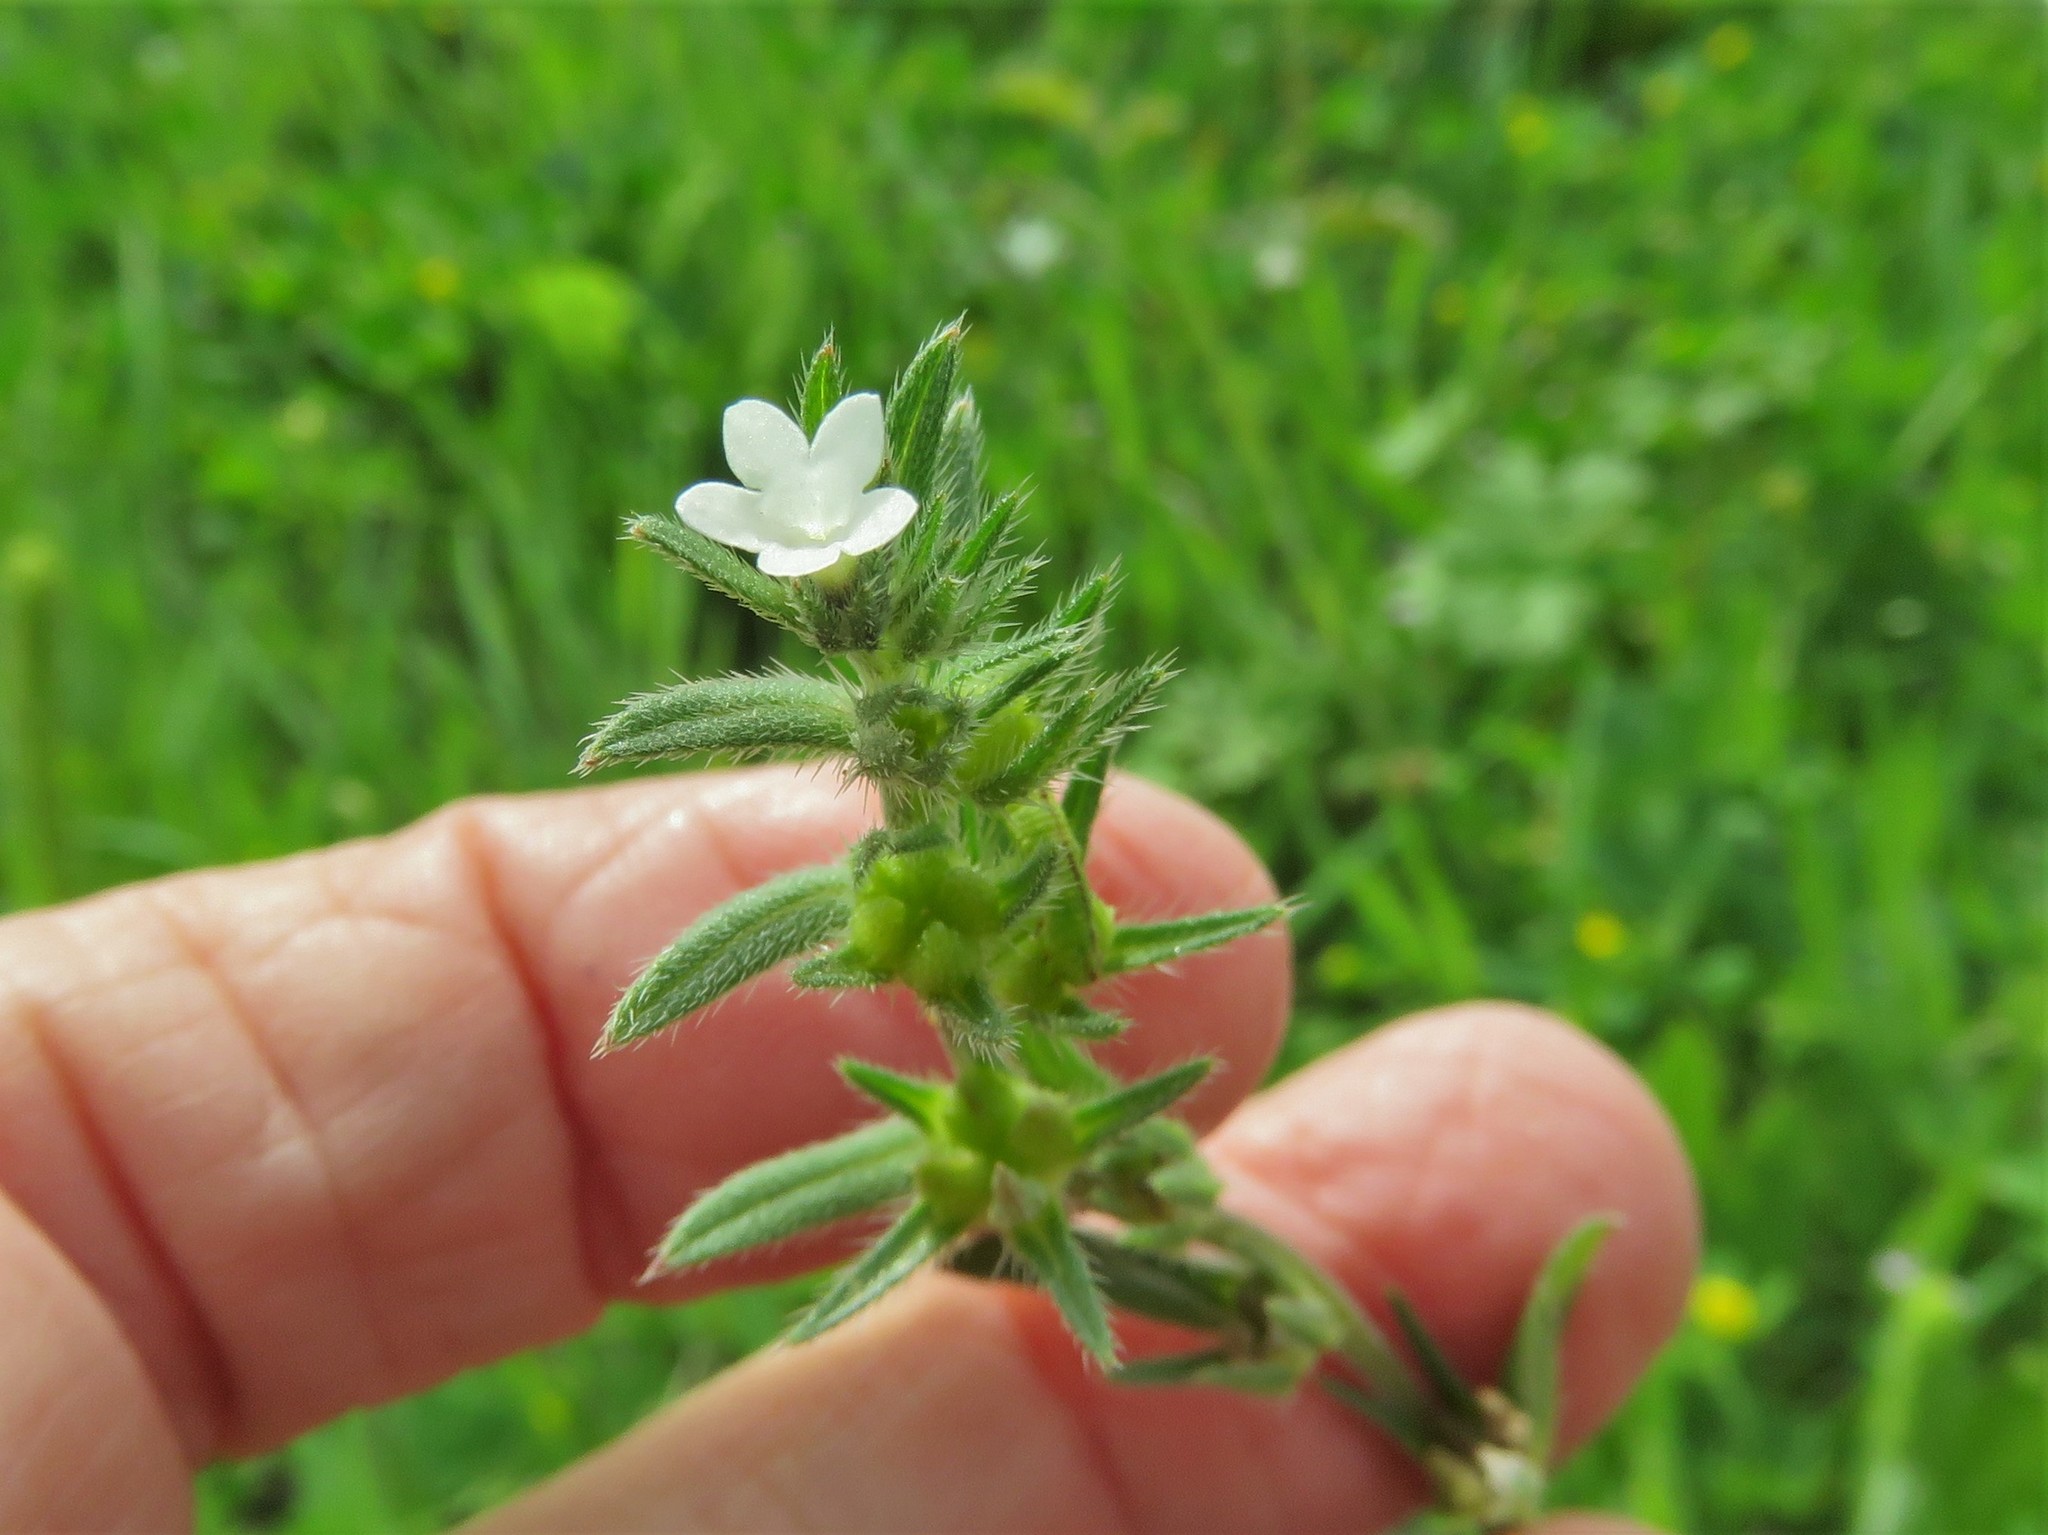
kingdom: Plantae
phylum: Tracheophyta
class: Magnoliopsida
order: Boraginales
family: Boraginaceae
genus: Buglossoides
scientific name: Buglossoides arvensis
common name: Corn gromwell
